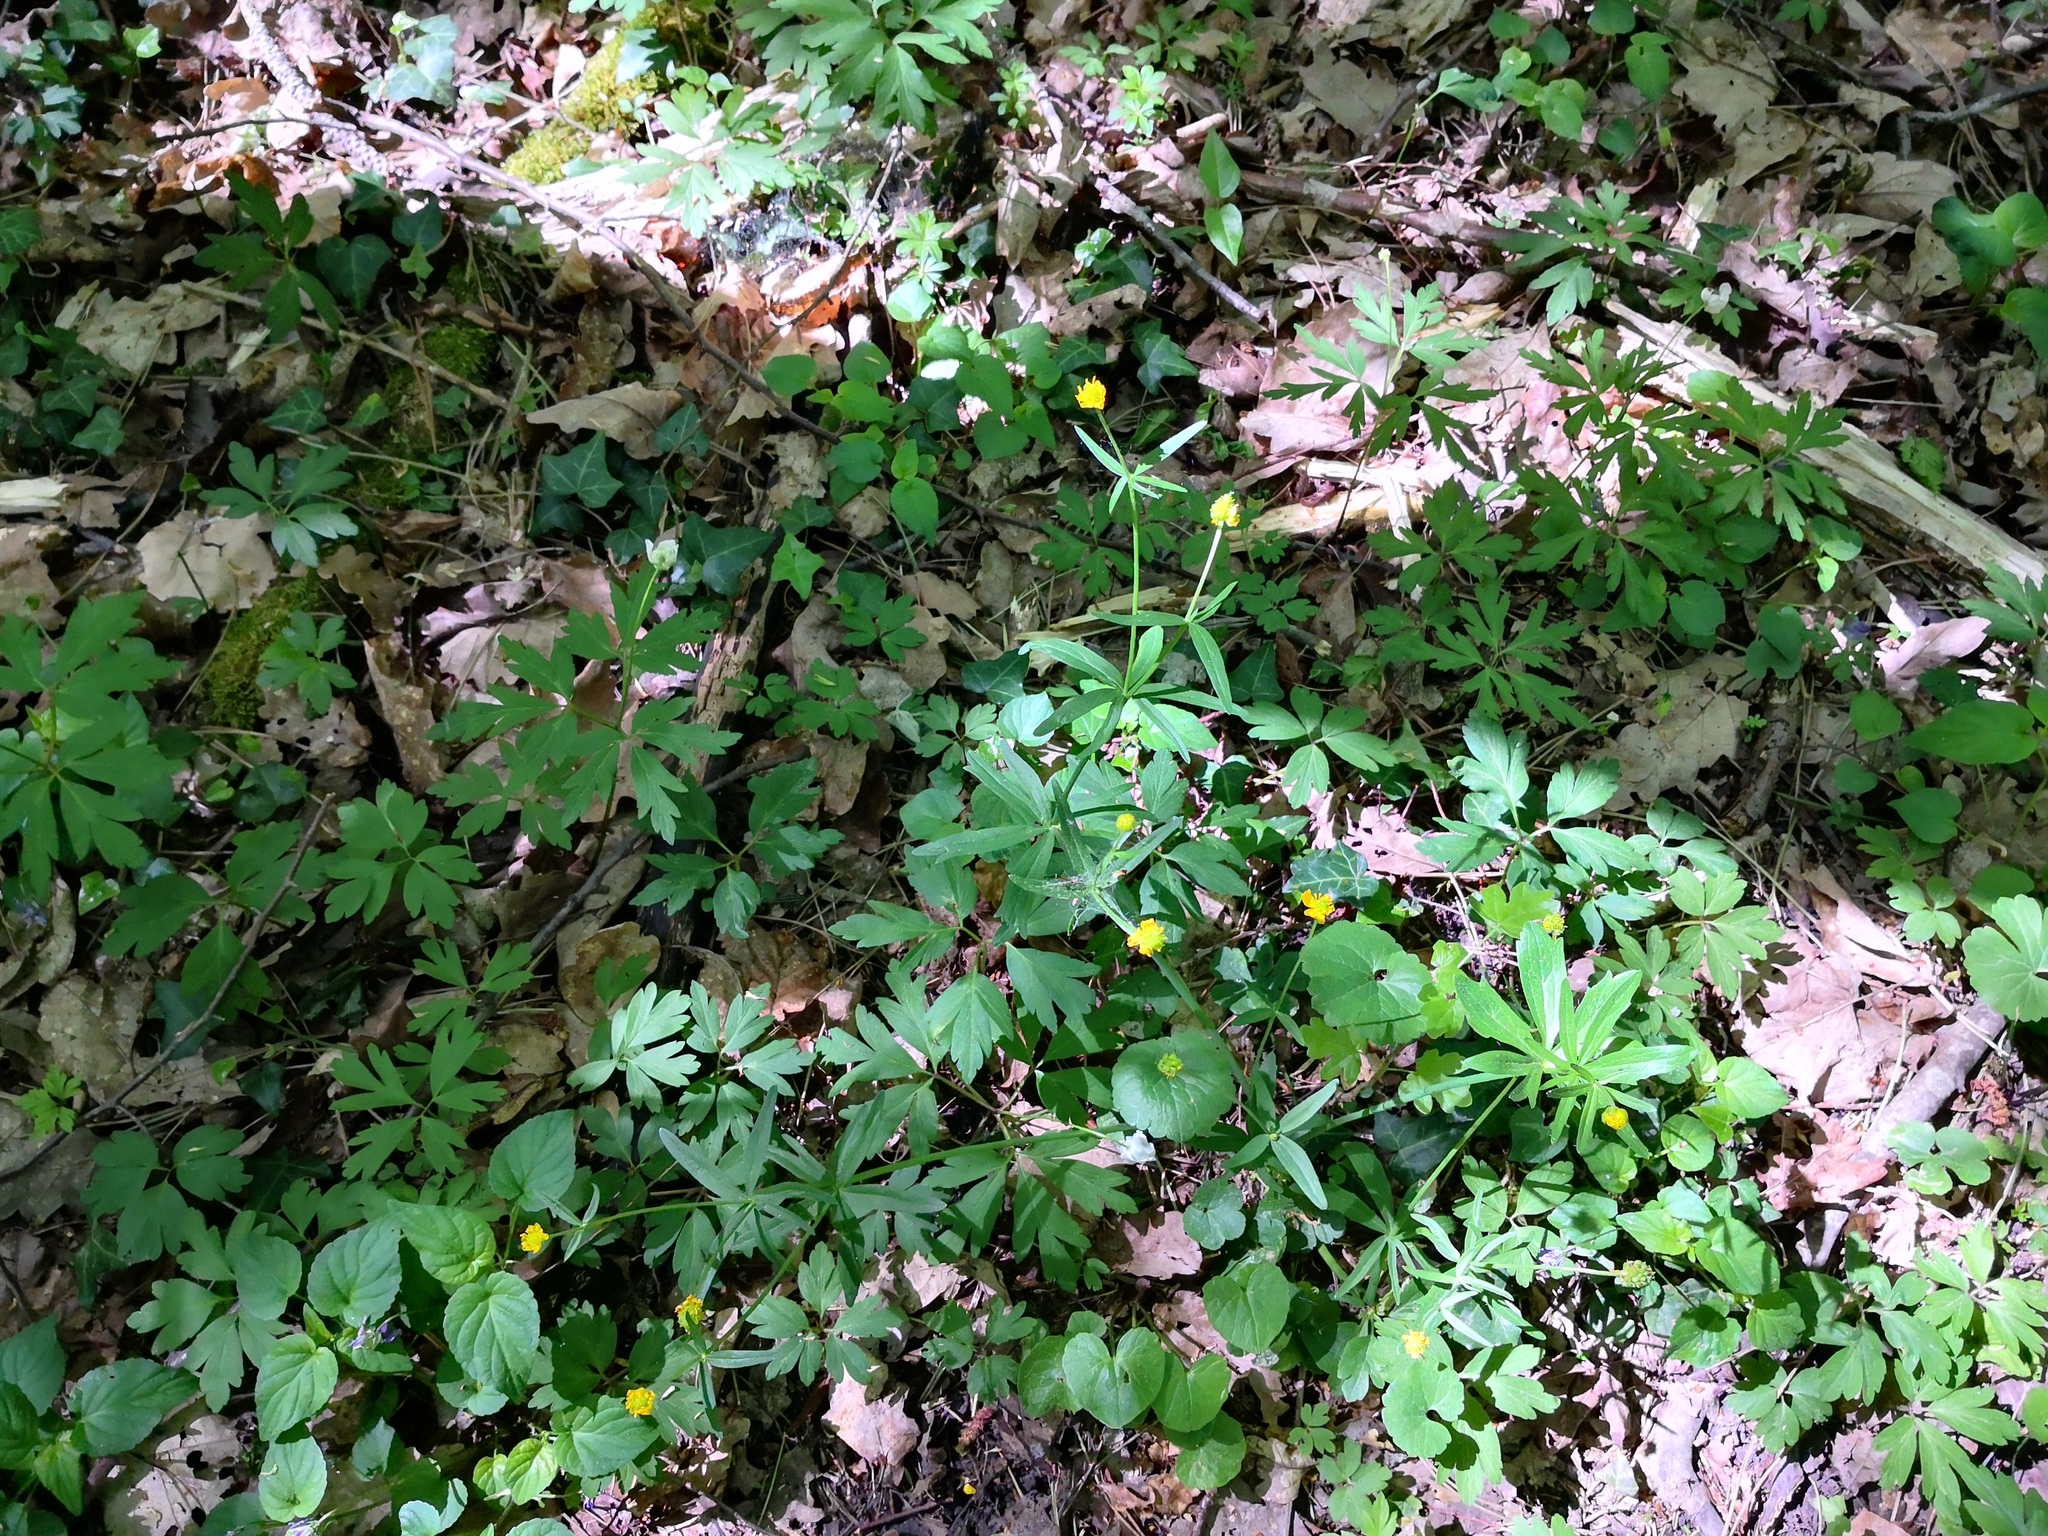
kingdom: Plantae
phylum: Tracheophyta
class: Magnoliopsida
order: Ranunculales
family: Ranunculaceae
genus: Ranunculus
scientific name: Ranunculus auricomus
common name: Goldilocks buttercup
